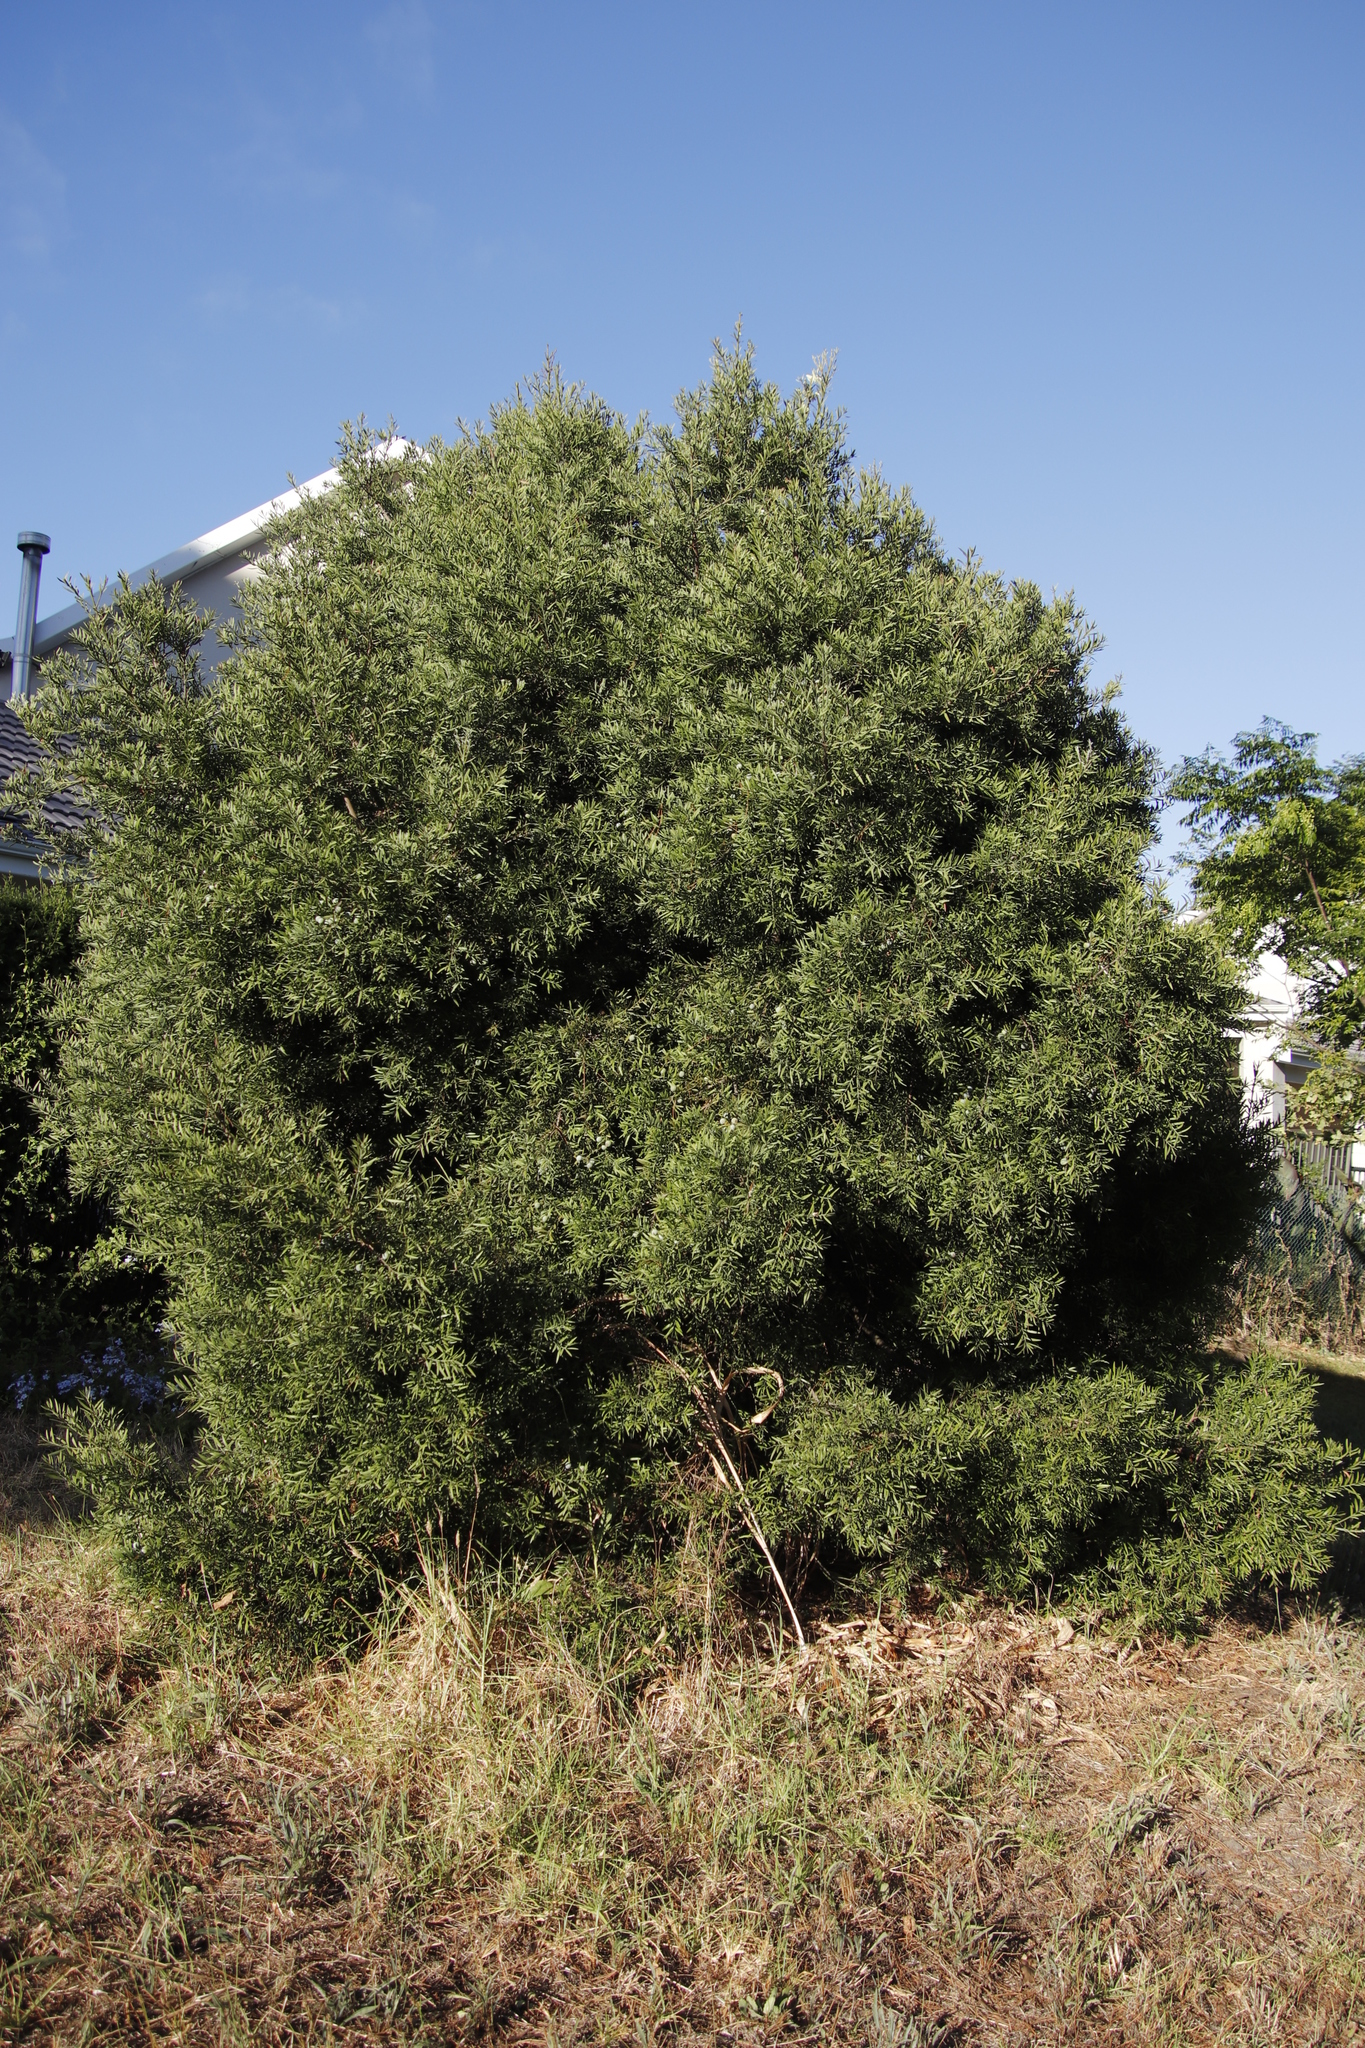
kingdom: Plantae
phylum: Tracheophyta
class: Pinopsida
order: Pinales
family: Podocarpaceae
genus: Afrocarpus
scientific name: Afrocarpus falcatus
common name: Bastard yellowwood
